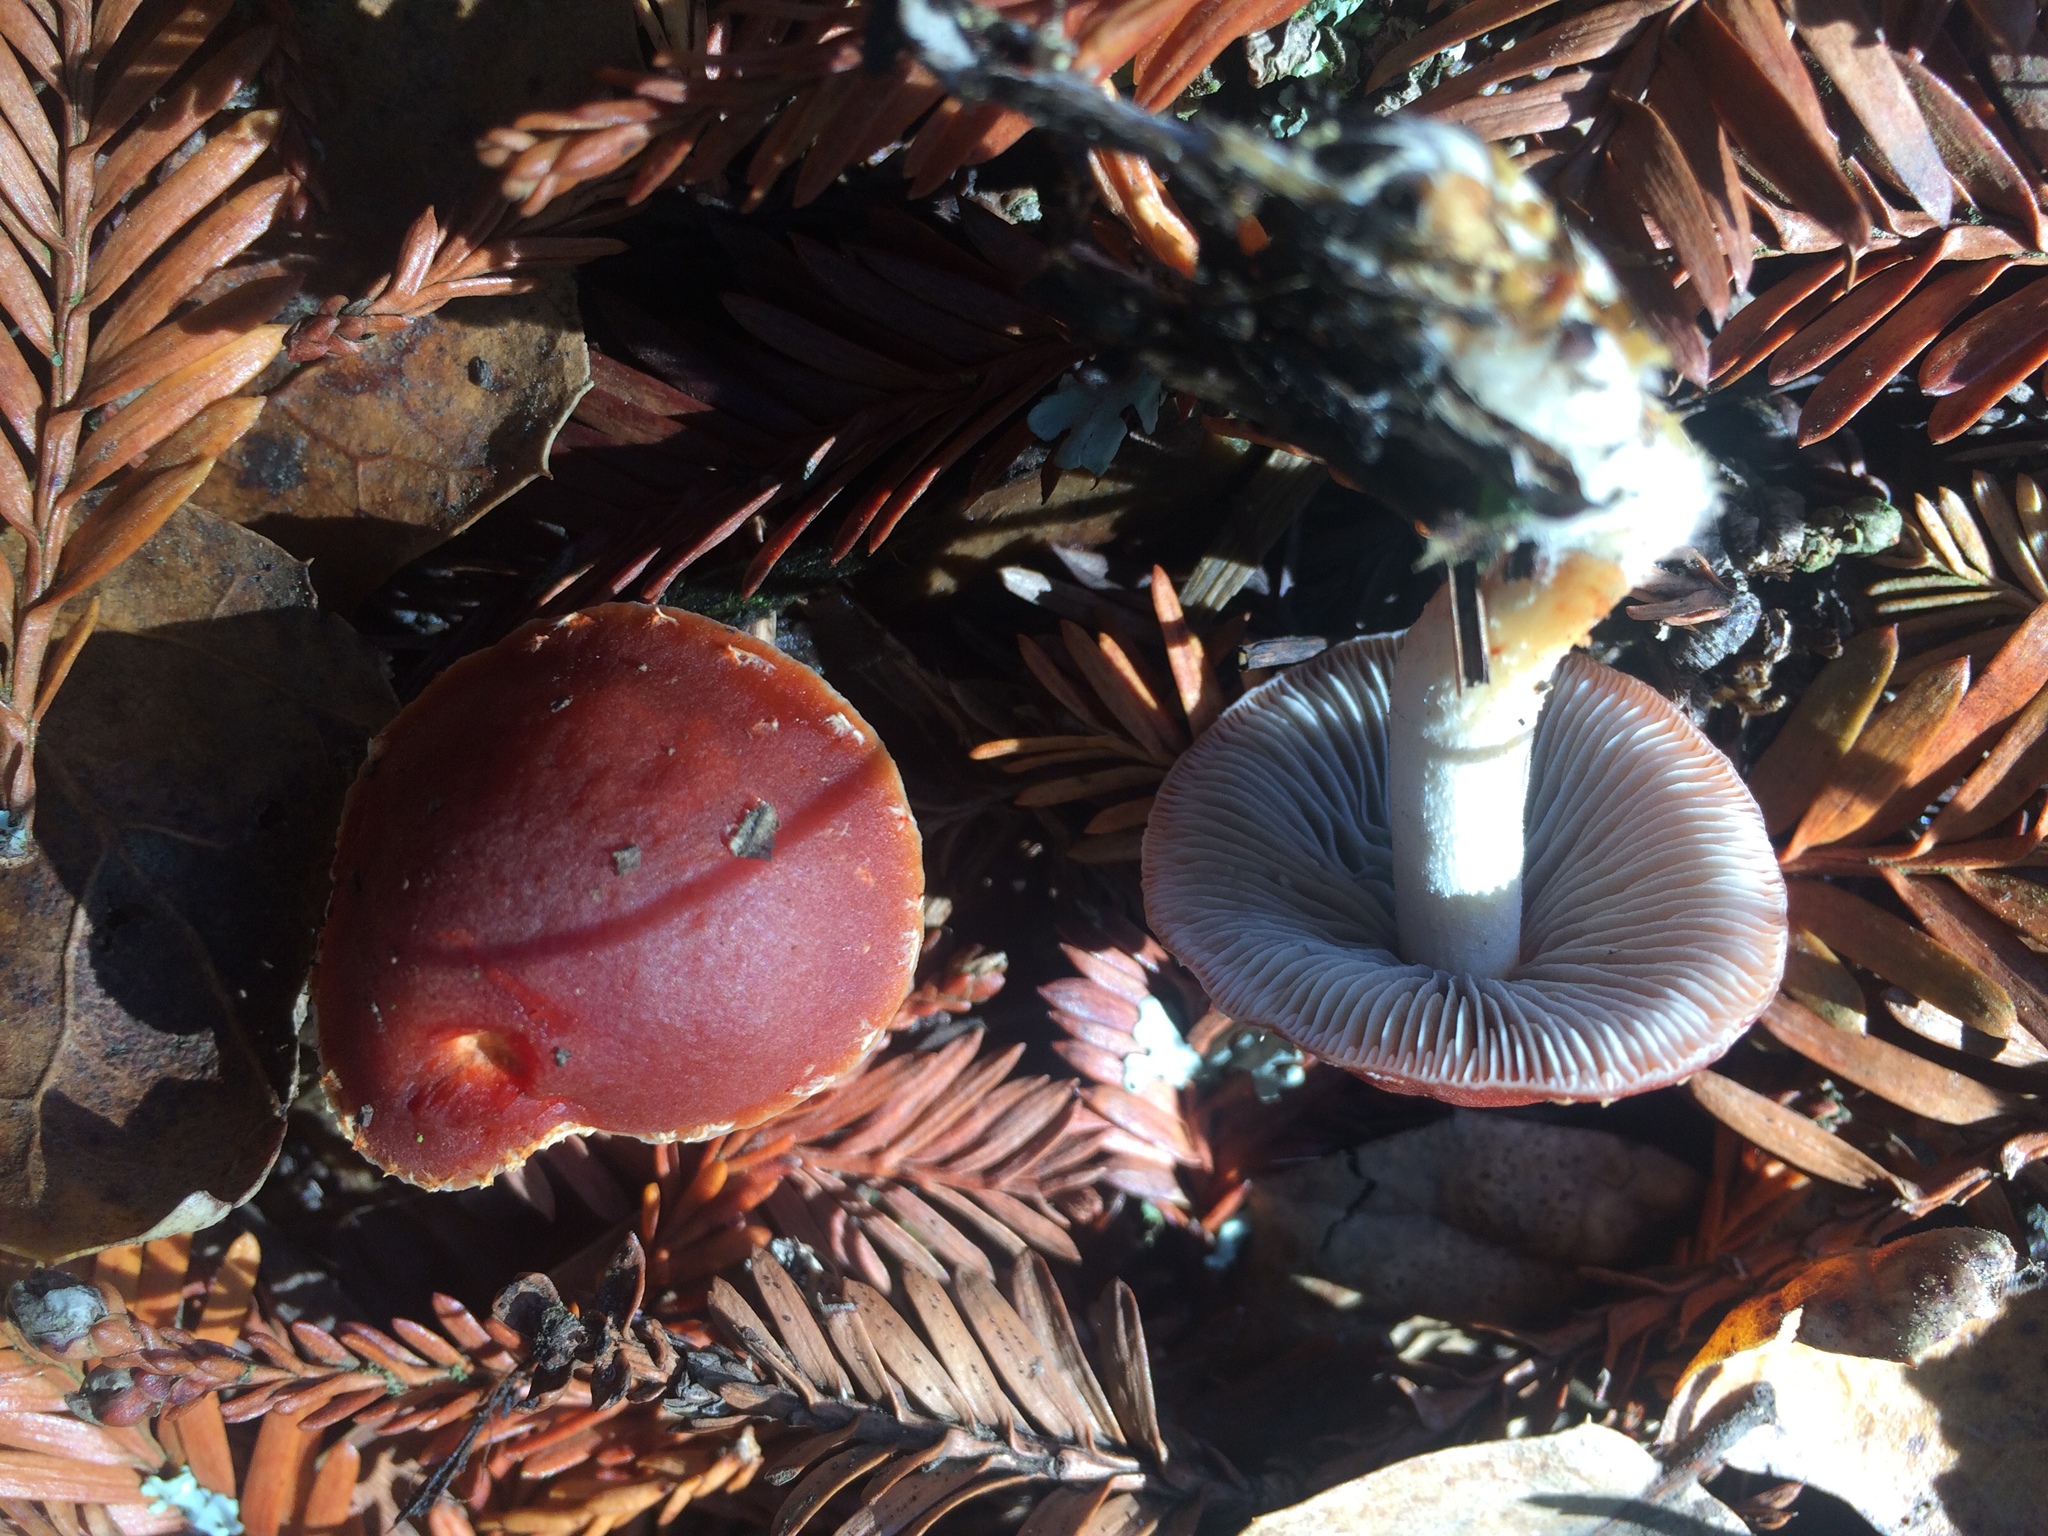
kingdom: Fungi
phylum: Basidiomycota
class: Agaricomycetes
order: Agaricales
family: Strophariaceae
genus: Leratiomyces
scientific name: Leratiomyces ceres
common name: Redlead roundhead
